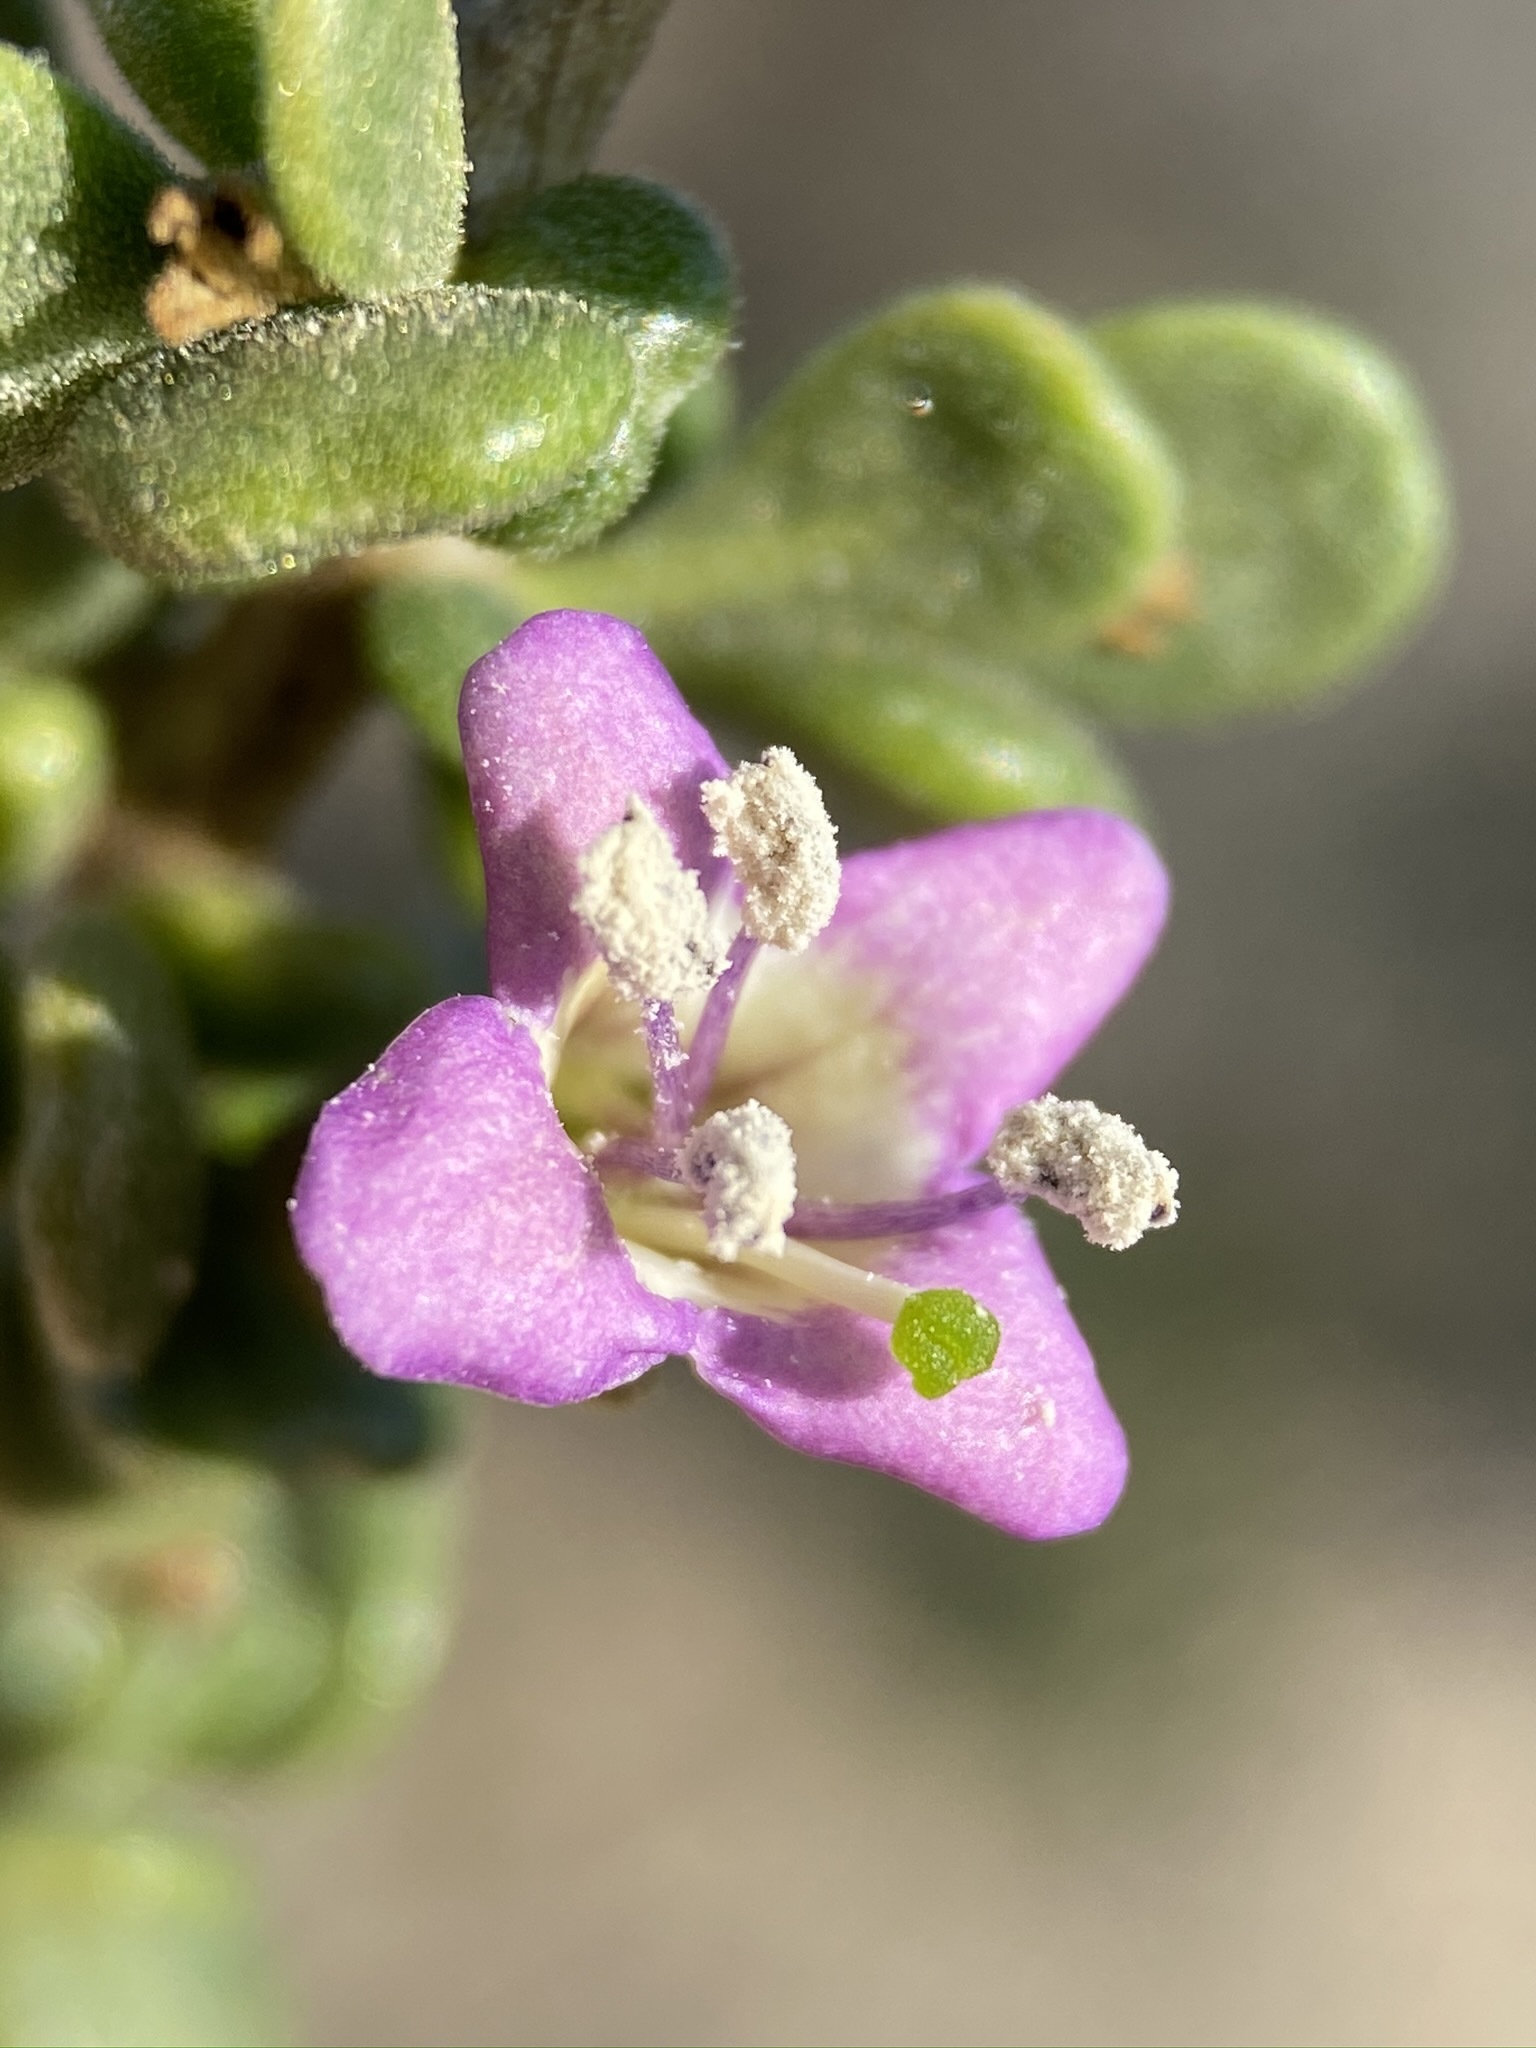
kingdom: Plantae
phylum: Tracheophyta
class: Magnoliopsida
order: Solanales
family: Solanaceae
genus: Lycium
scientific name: Lycium brevipes
